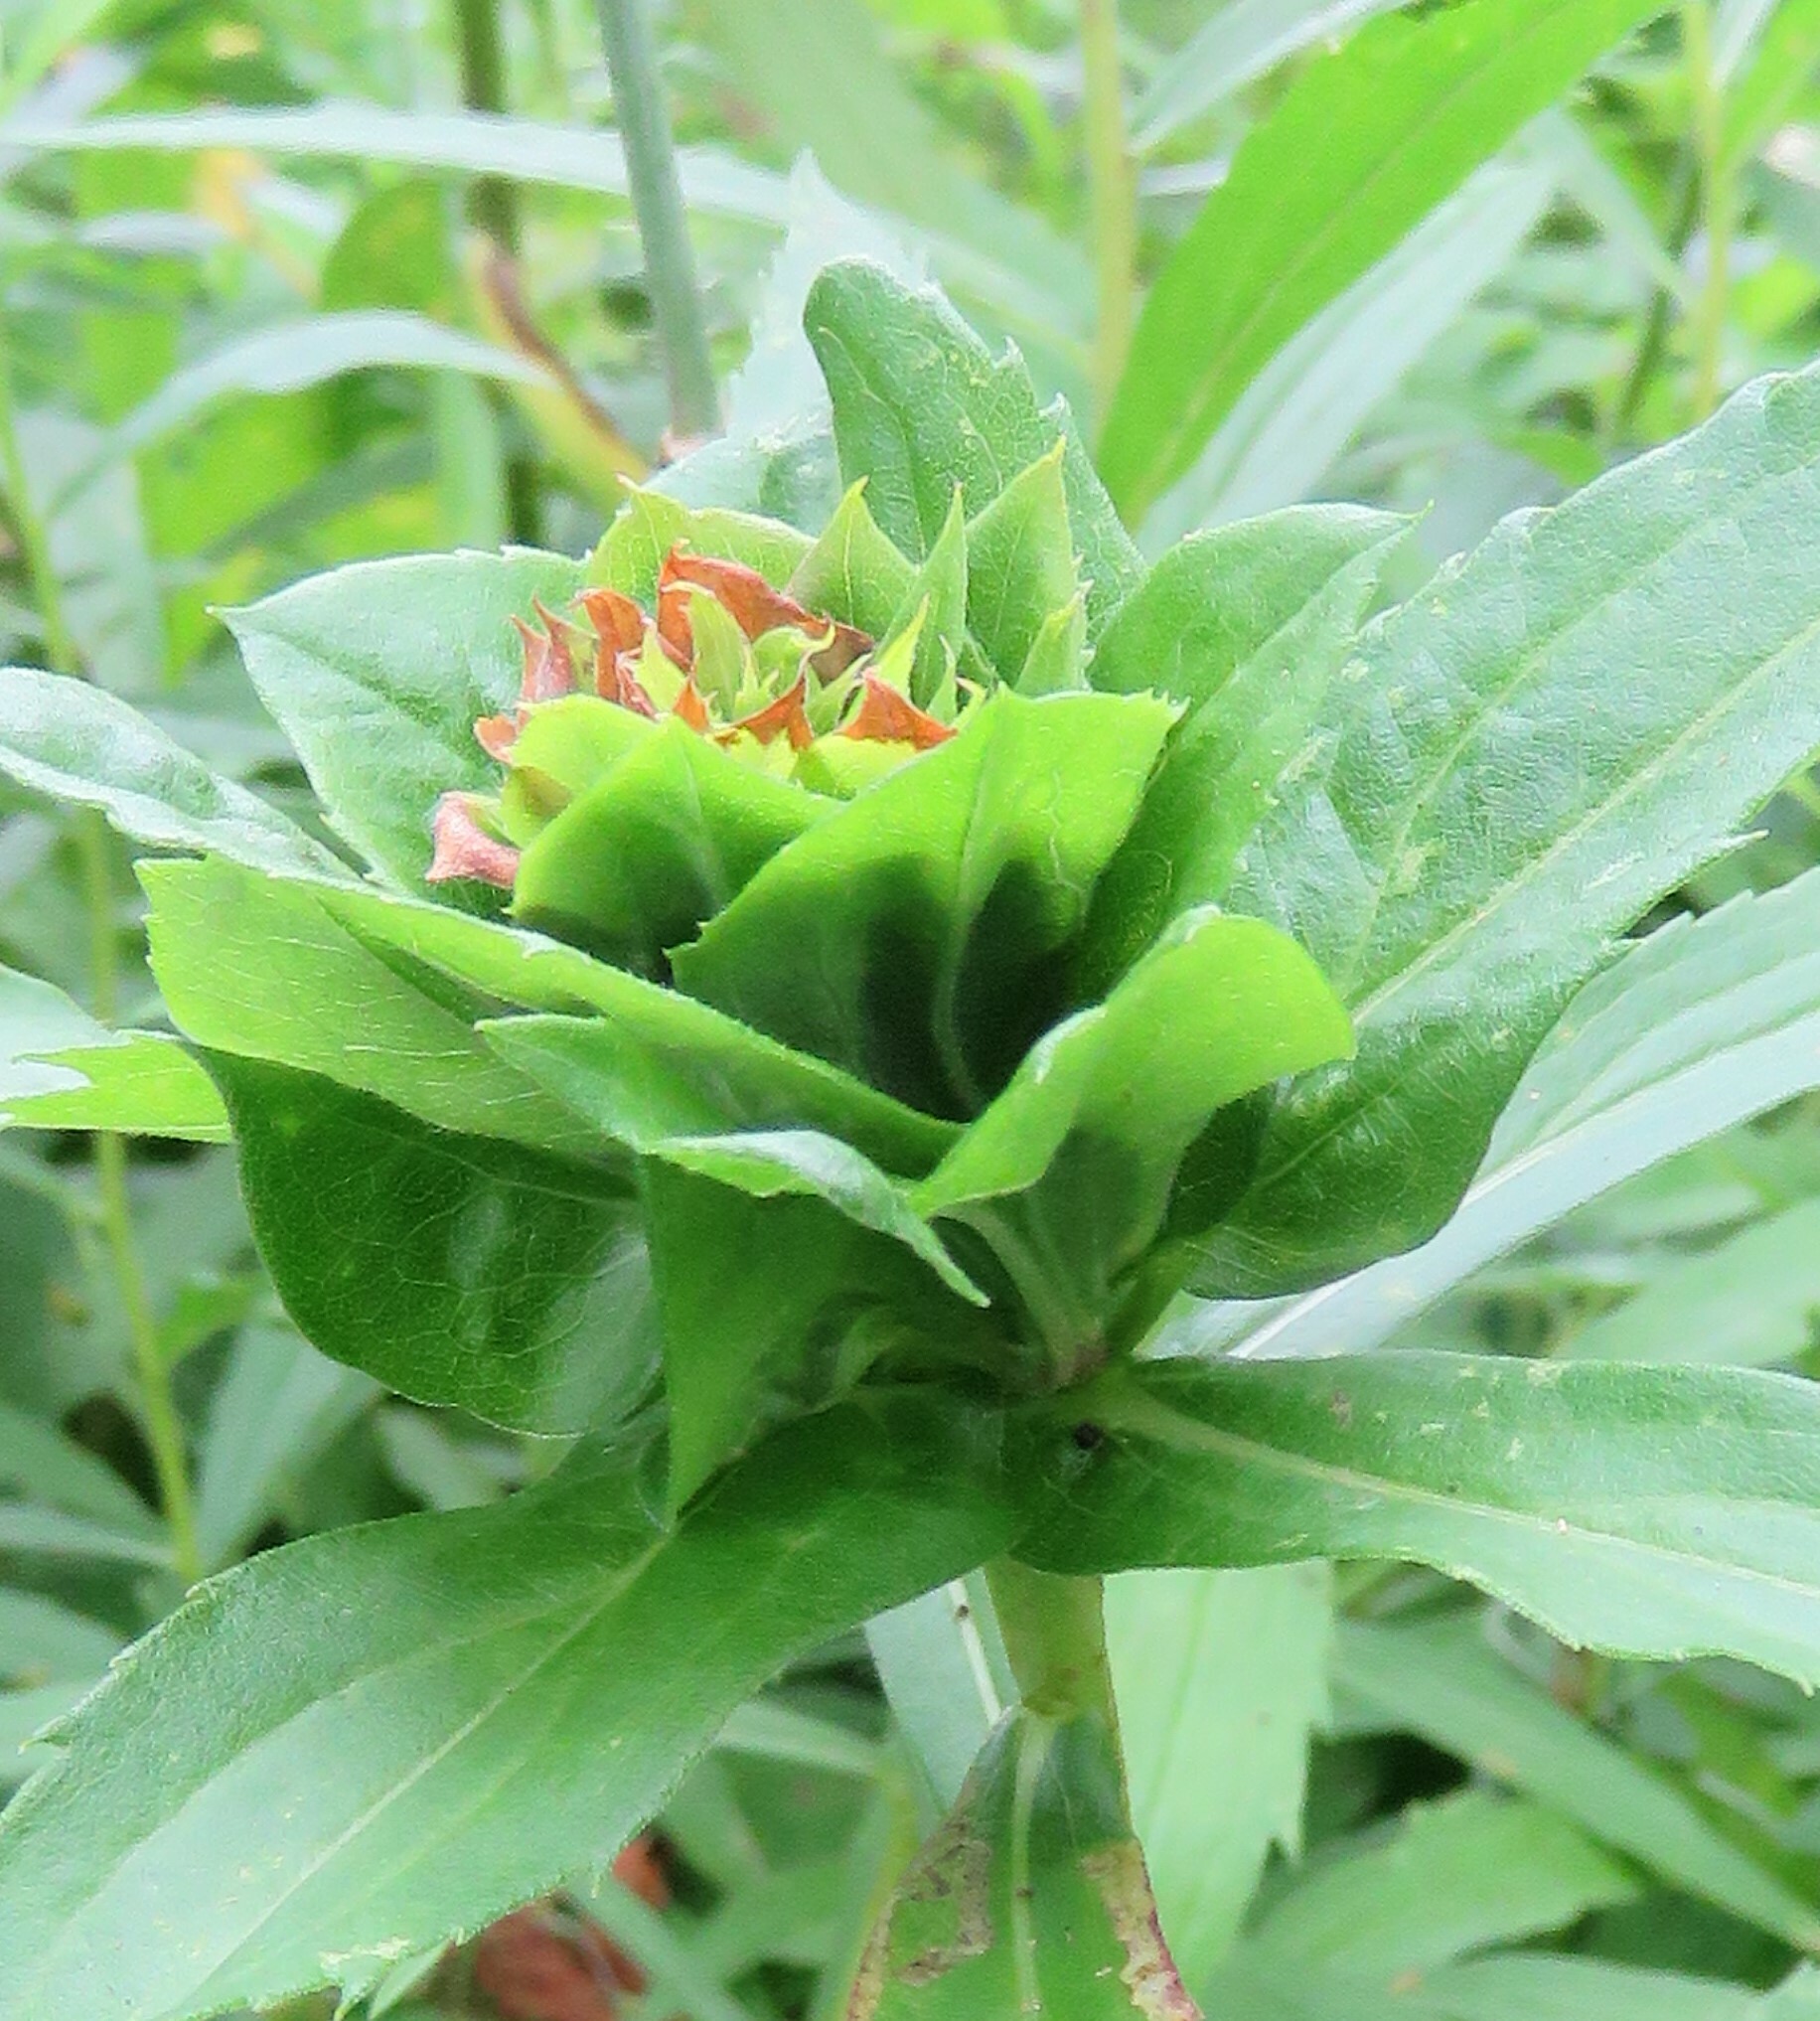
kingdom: Animalia
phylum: Arthropoda
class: Insecta
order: Diptera
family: Cecidomyiidae
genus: Rhopalomyia
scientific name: Rhopalomyia capitata
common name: Giant goldenrod bunch gall midge
